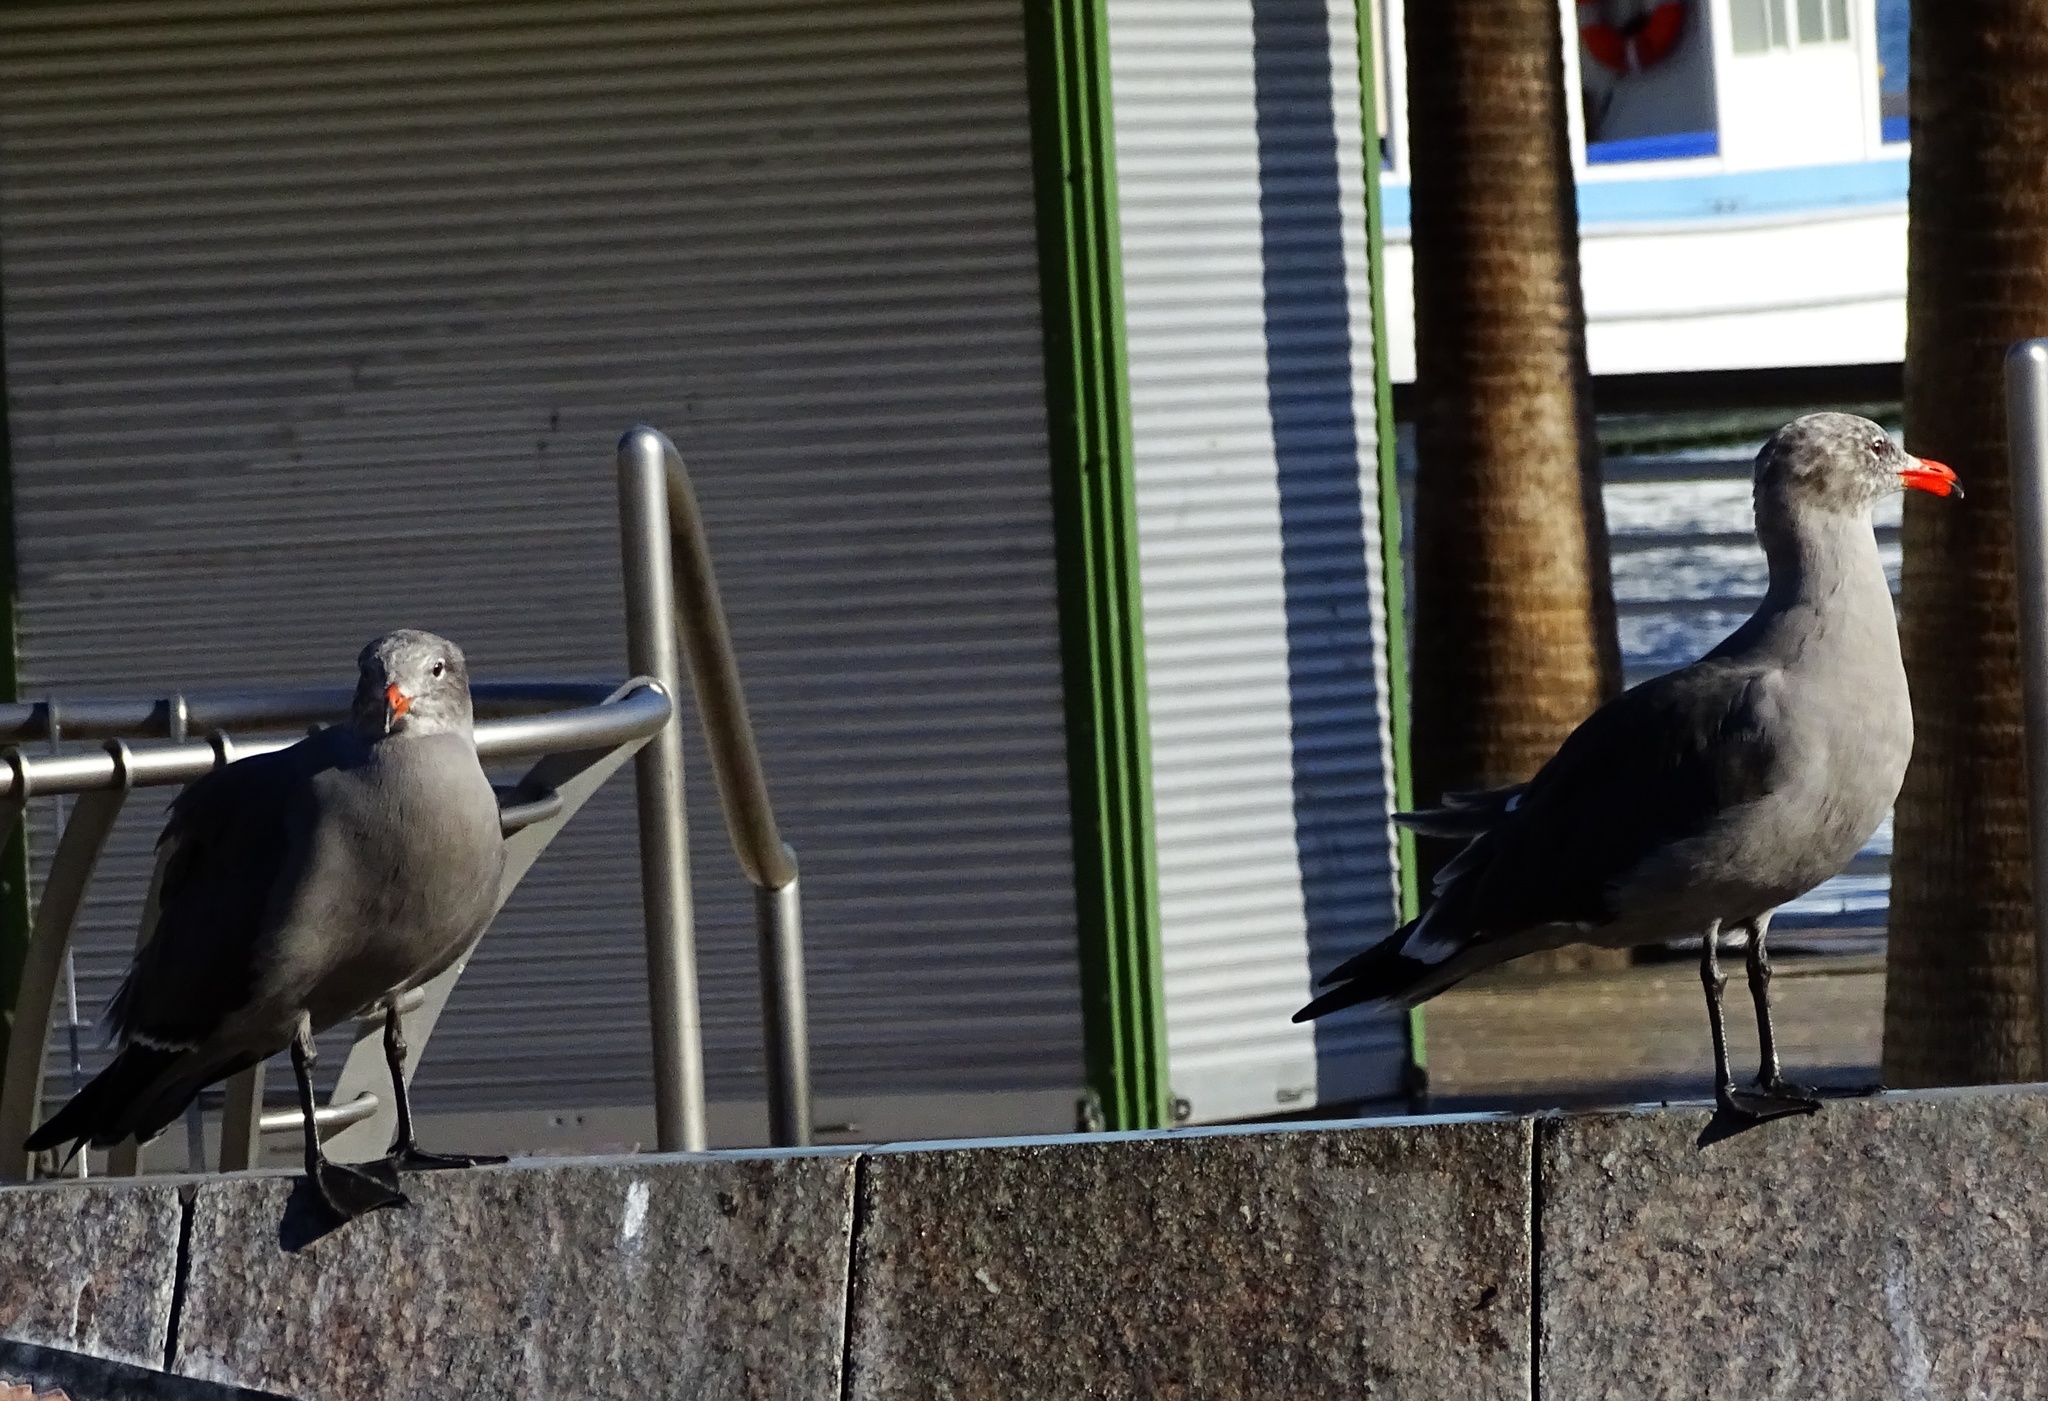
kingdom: Animalia
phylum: Chordata
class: Aves
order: Charadriiformes
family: Laridae
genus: Larus
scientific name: Larus heermanni
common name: Heermann's gull
